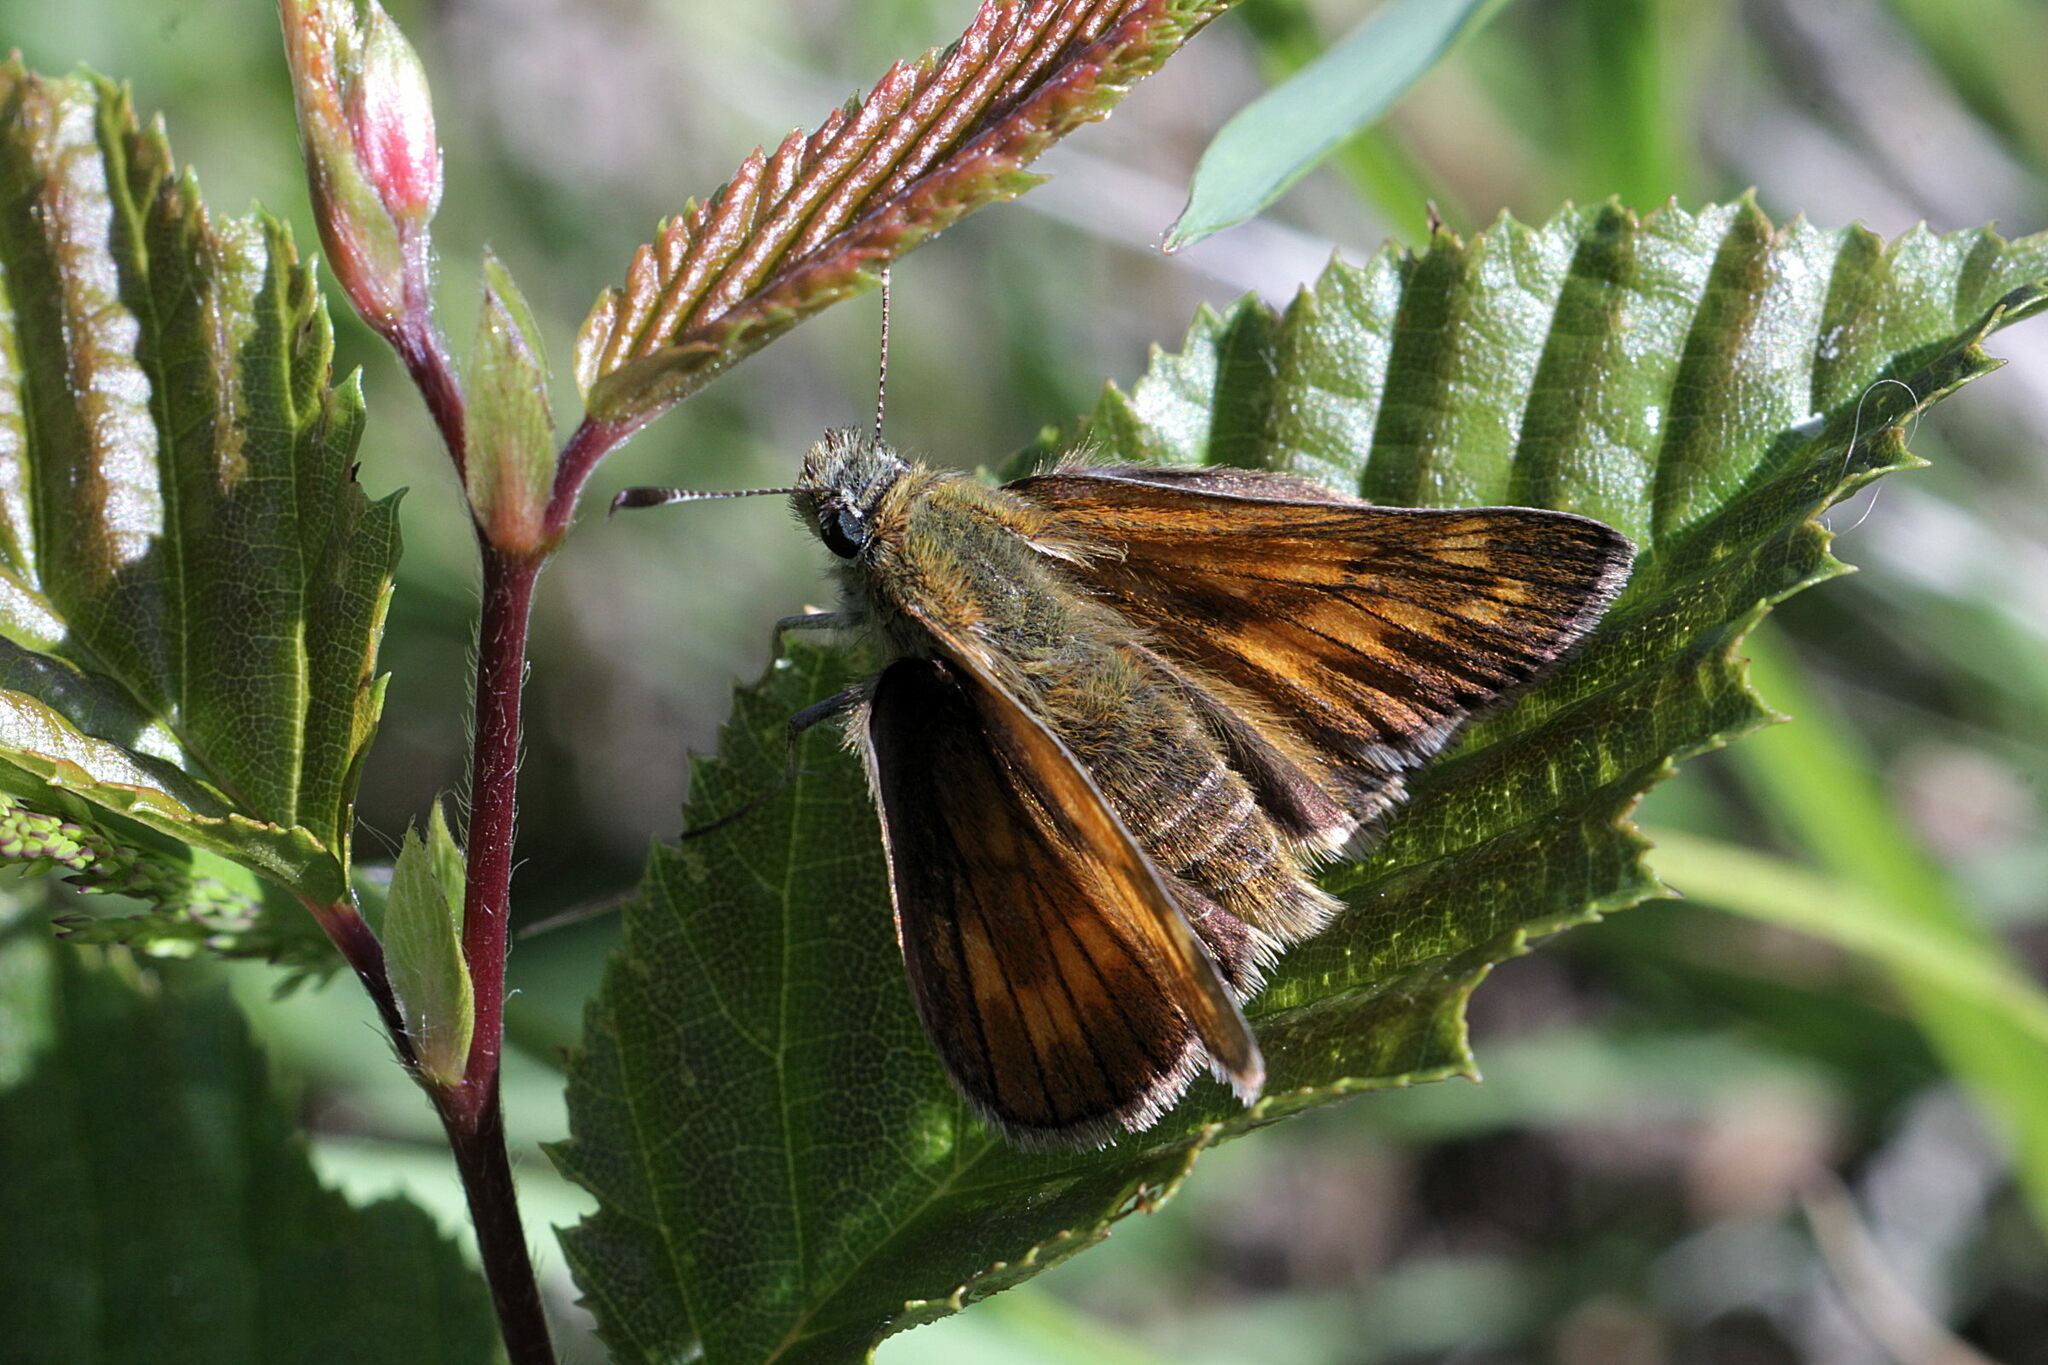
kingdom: Animalia
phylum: Arthropoda
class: Insecta
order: Lepidoptera
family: Hesperiidae
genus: Ochlodes
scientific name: Ochlodes venata
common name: Large skipper
